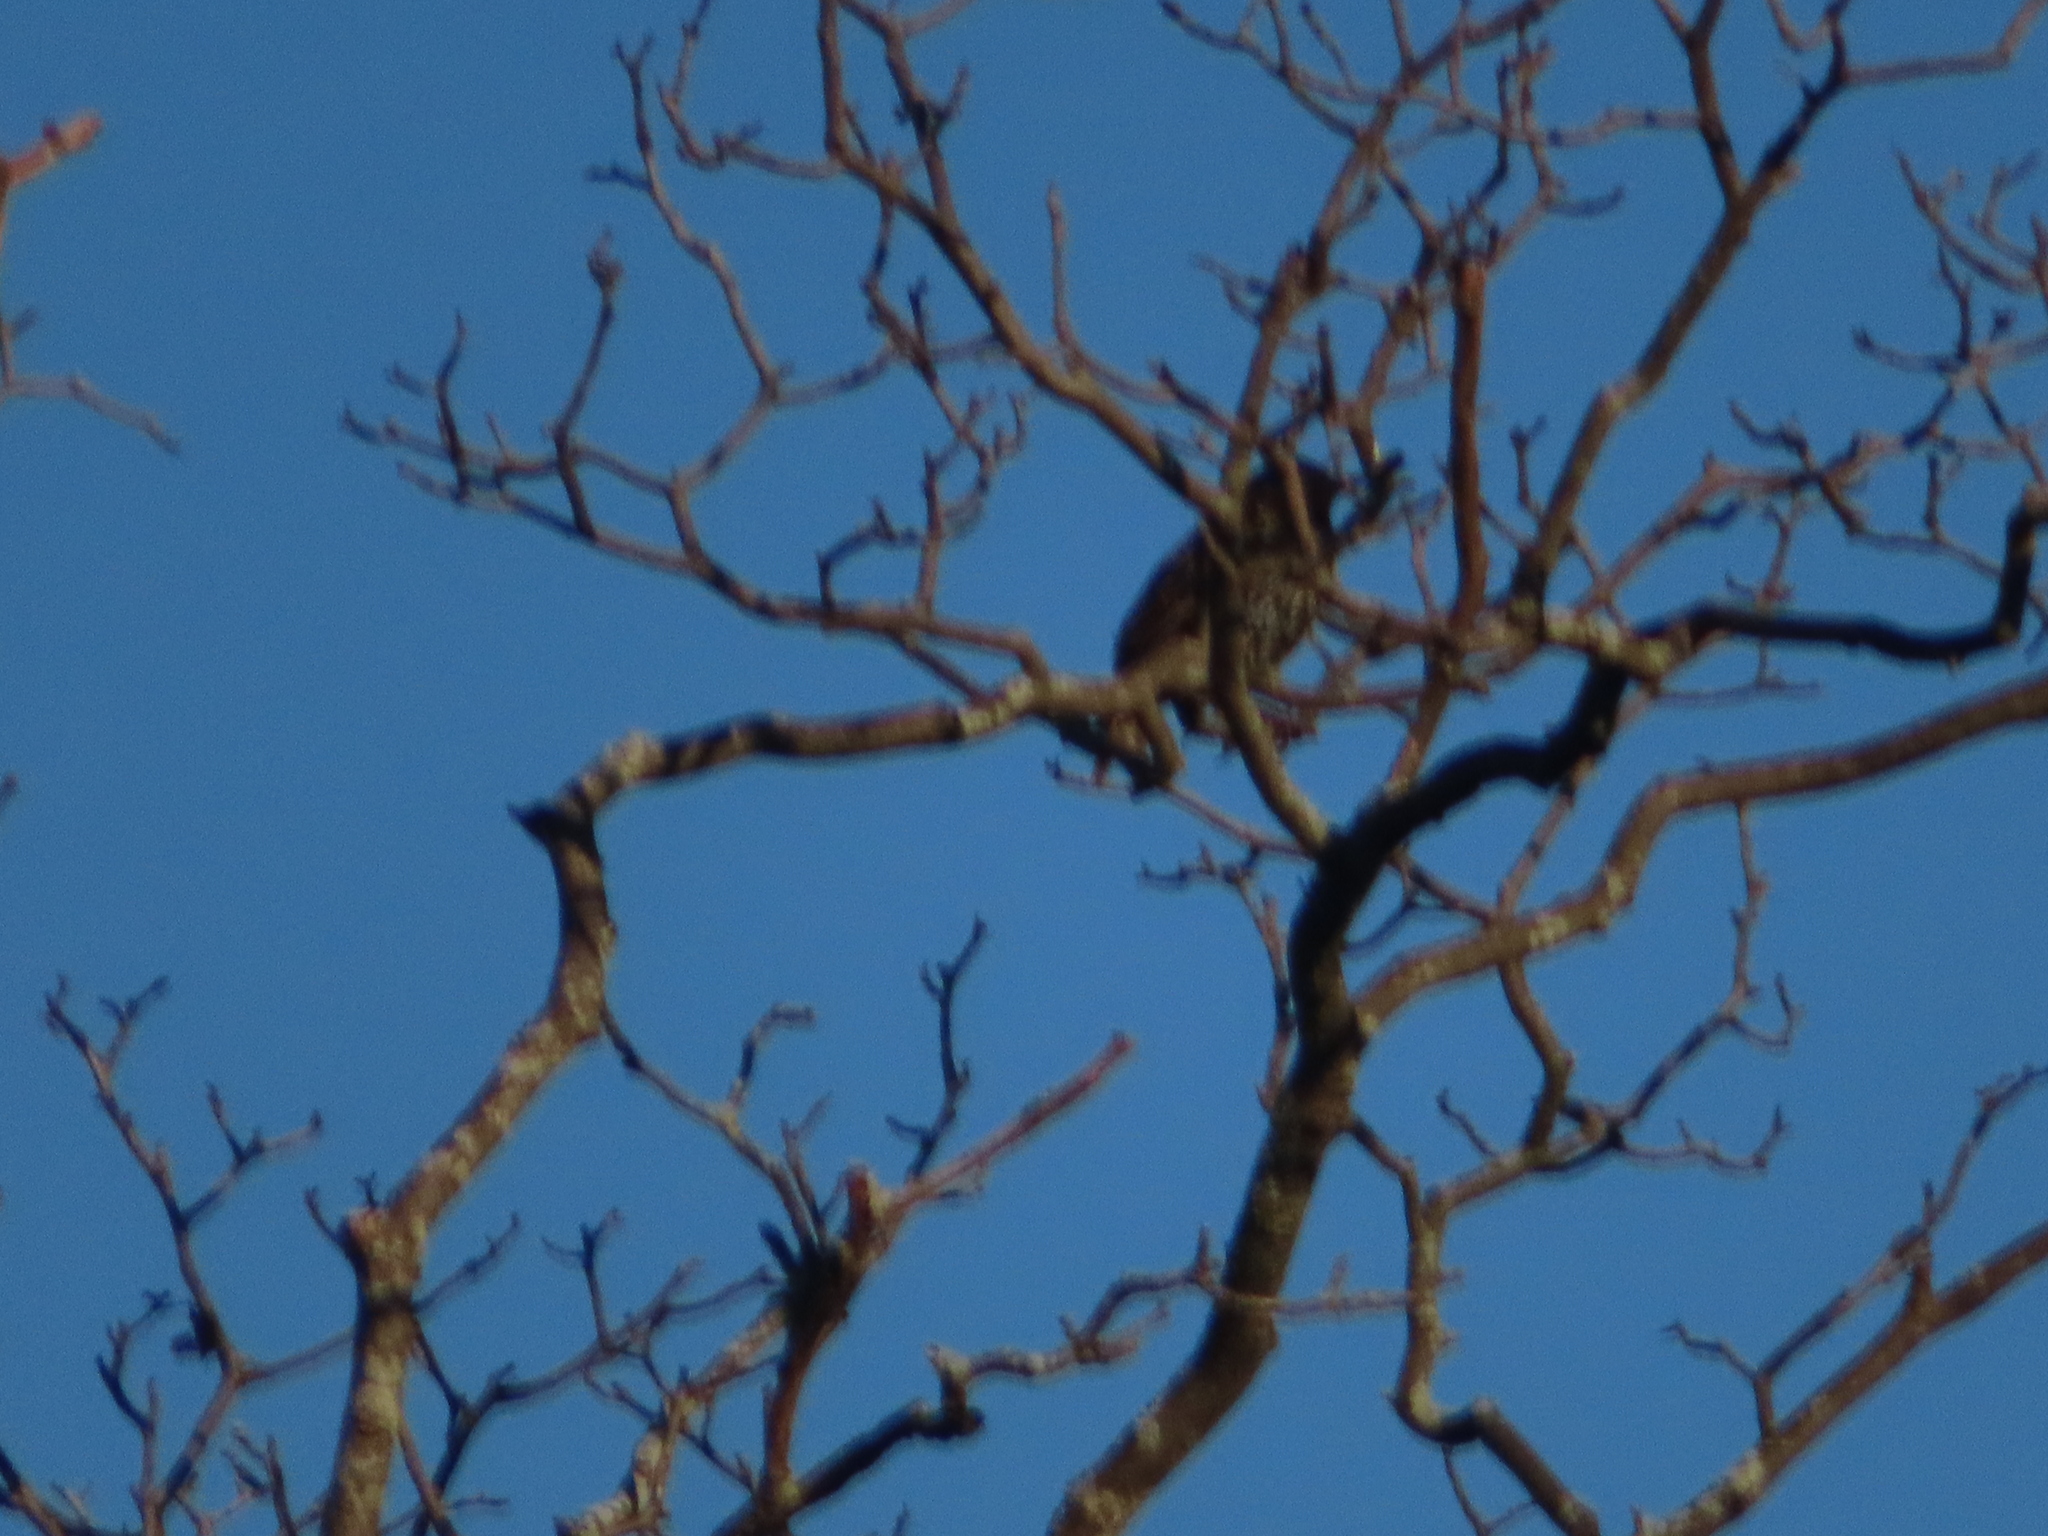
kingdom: Animalia
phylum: Chordata
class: Aves
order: Passeriformes
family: Sturnidae
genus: Sturnus
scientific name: Sturnus vulgaris
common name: Common starling
